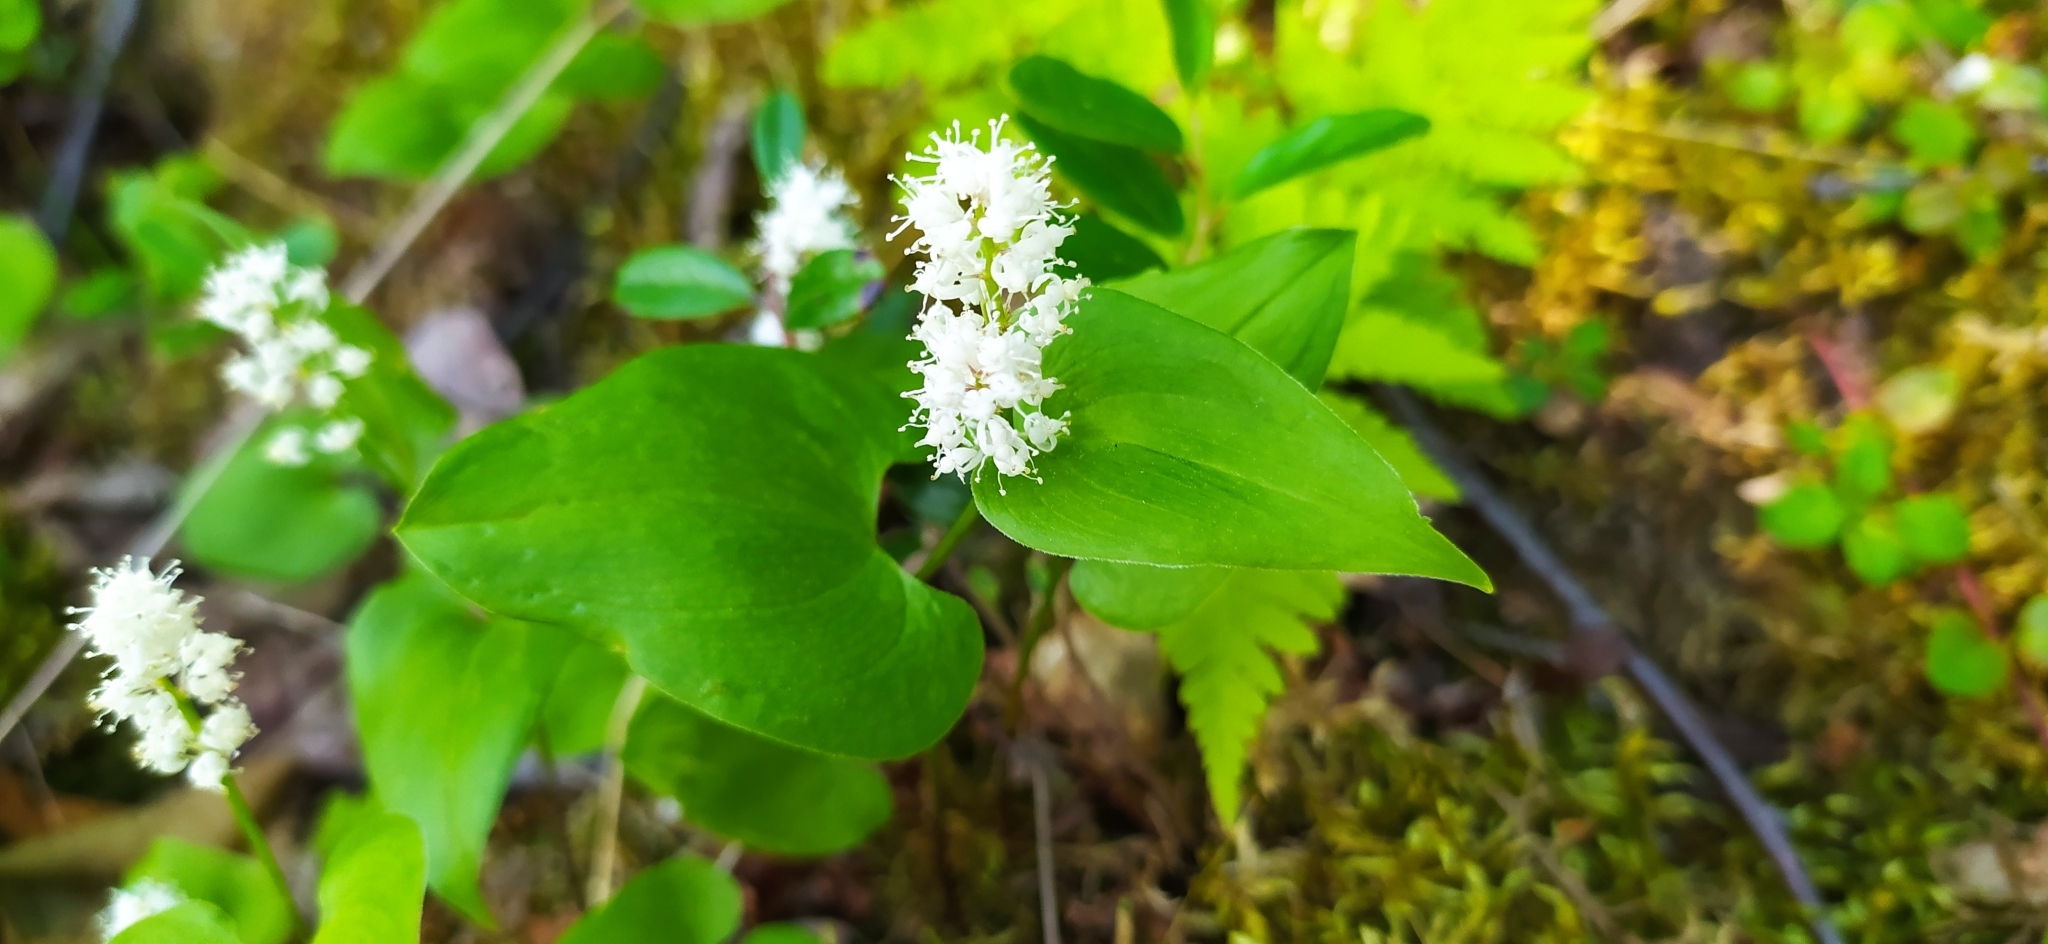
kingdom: Plantae
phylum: Tracheophyta
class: Liliopsida
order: Asparagales
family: Asparagaceae
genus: Maianthemum
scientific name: Maianthemum bifolium
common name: May lily
